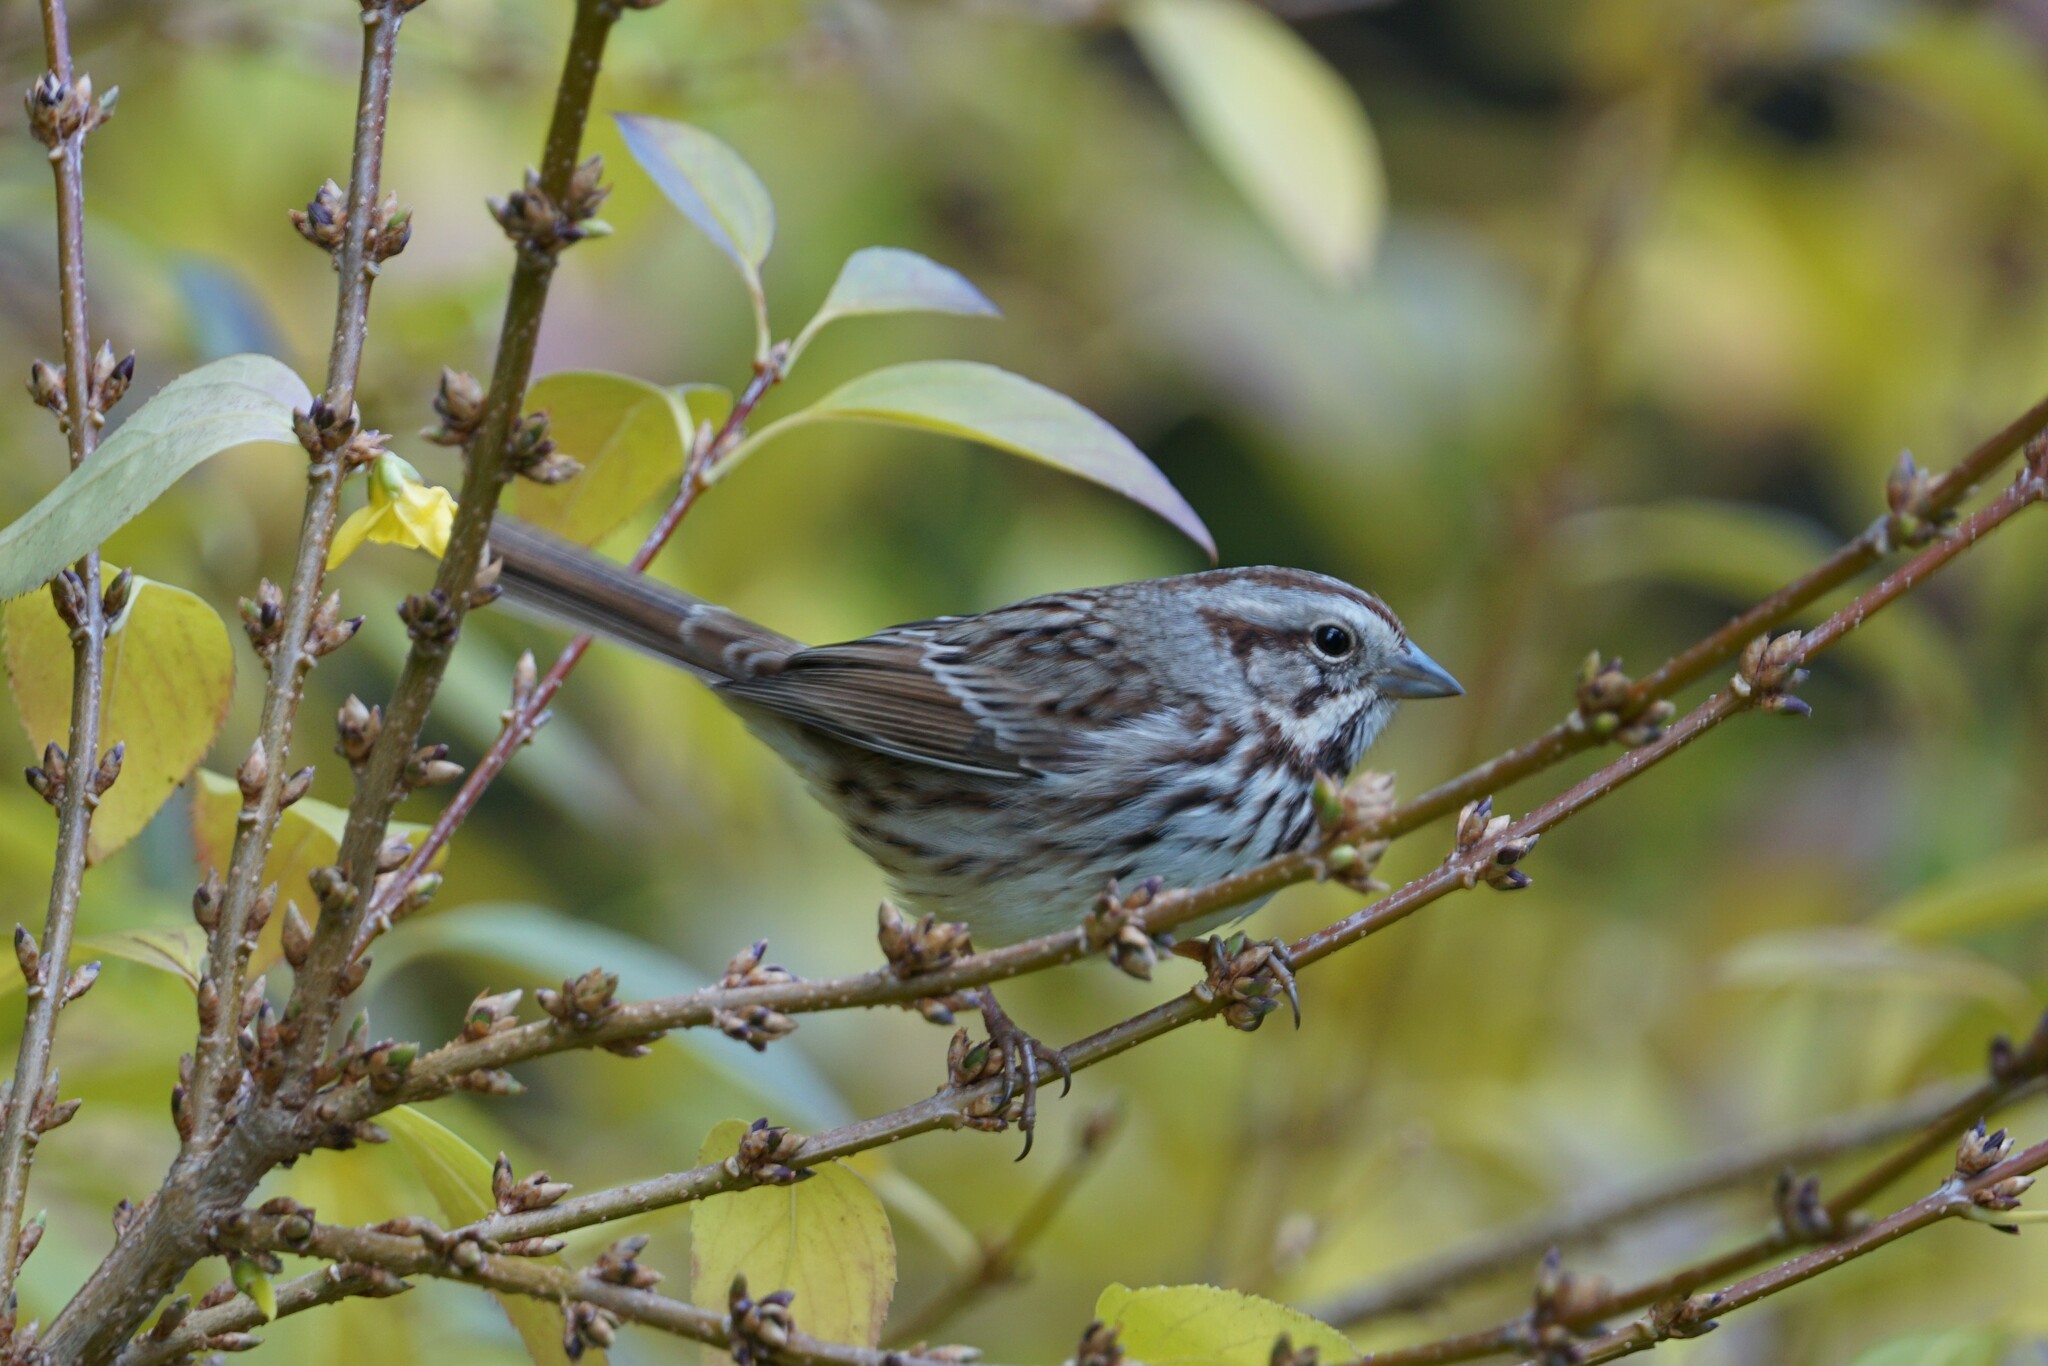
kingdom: Animalia
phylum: Chordata
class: Aves
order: Passeriformes
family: Passerellidae
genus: Melospiza
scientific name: Melospiza melodia
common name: Song sparrow
